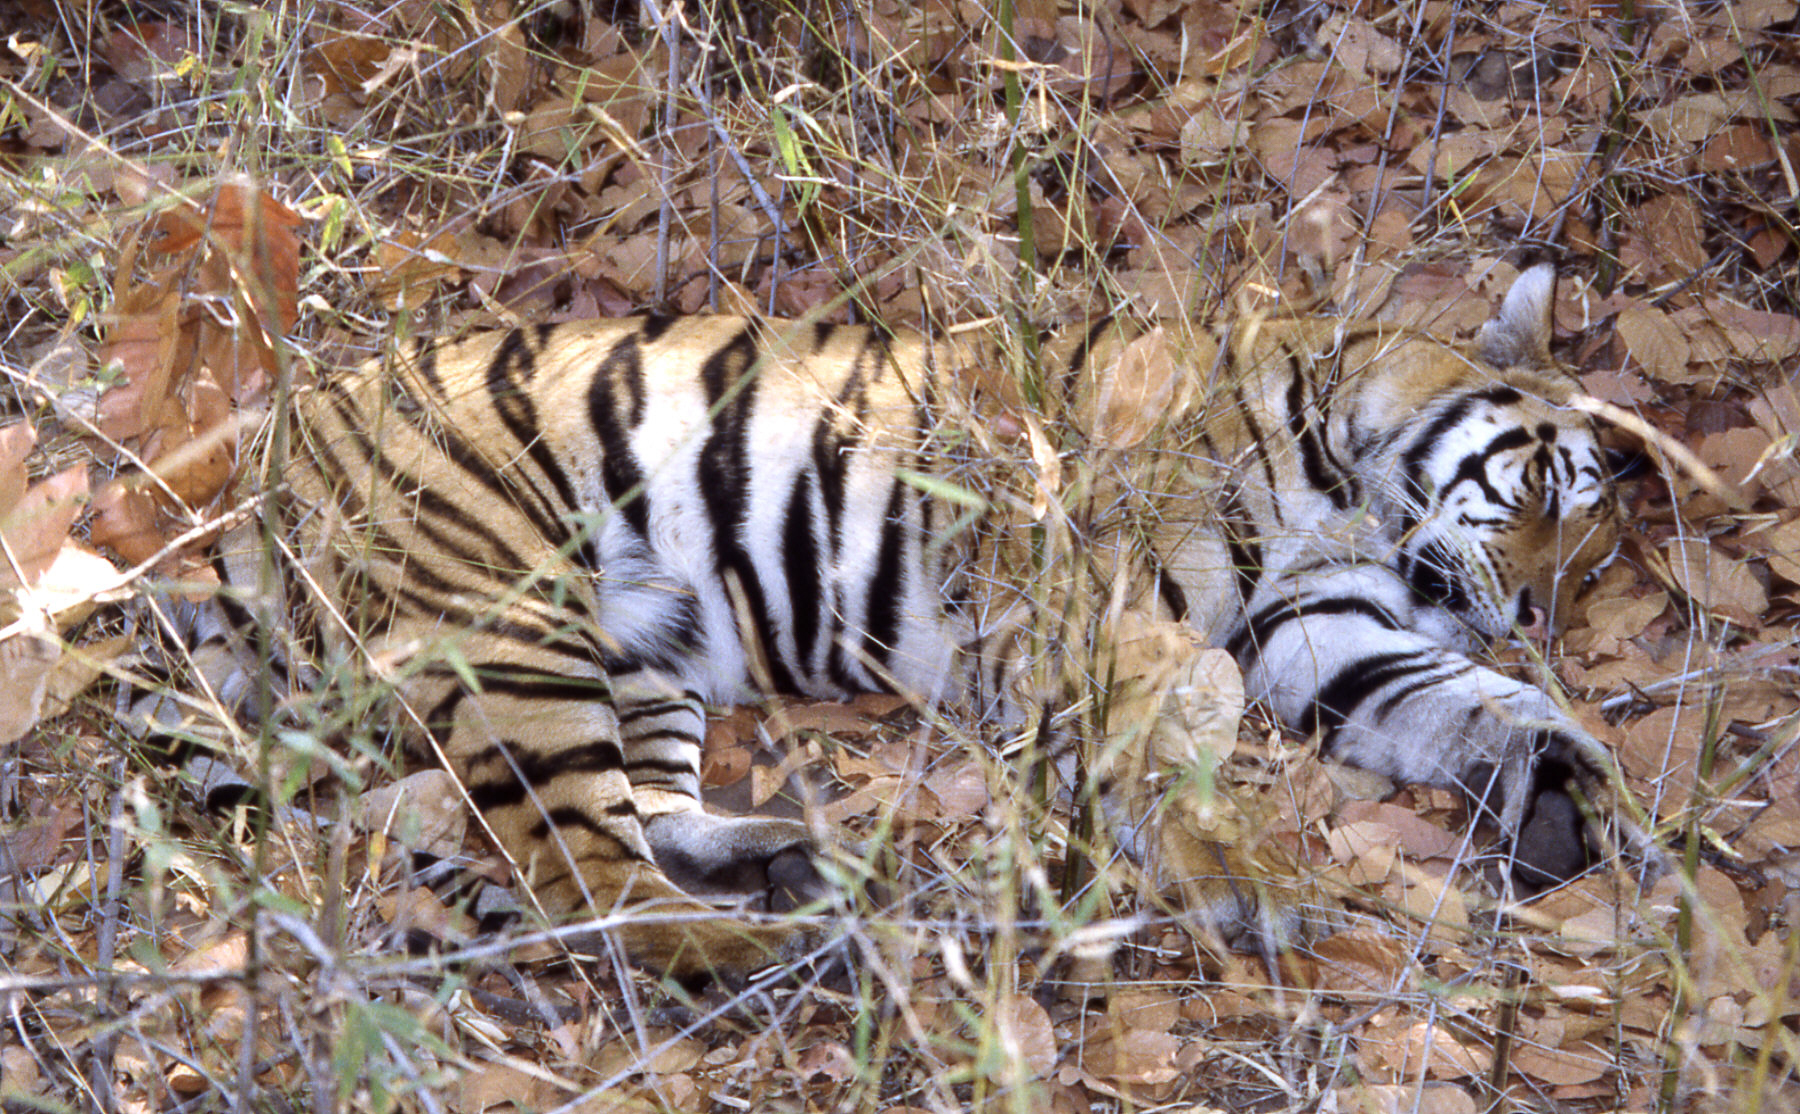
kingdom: Animalia
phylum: Chordata
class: Mammalia
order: Carnivora
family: Felidae
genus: Panthera
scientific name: Panthera tigris
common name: Tiger
